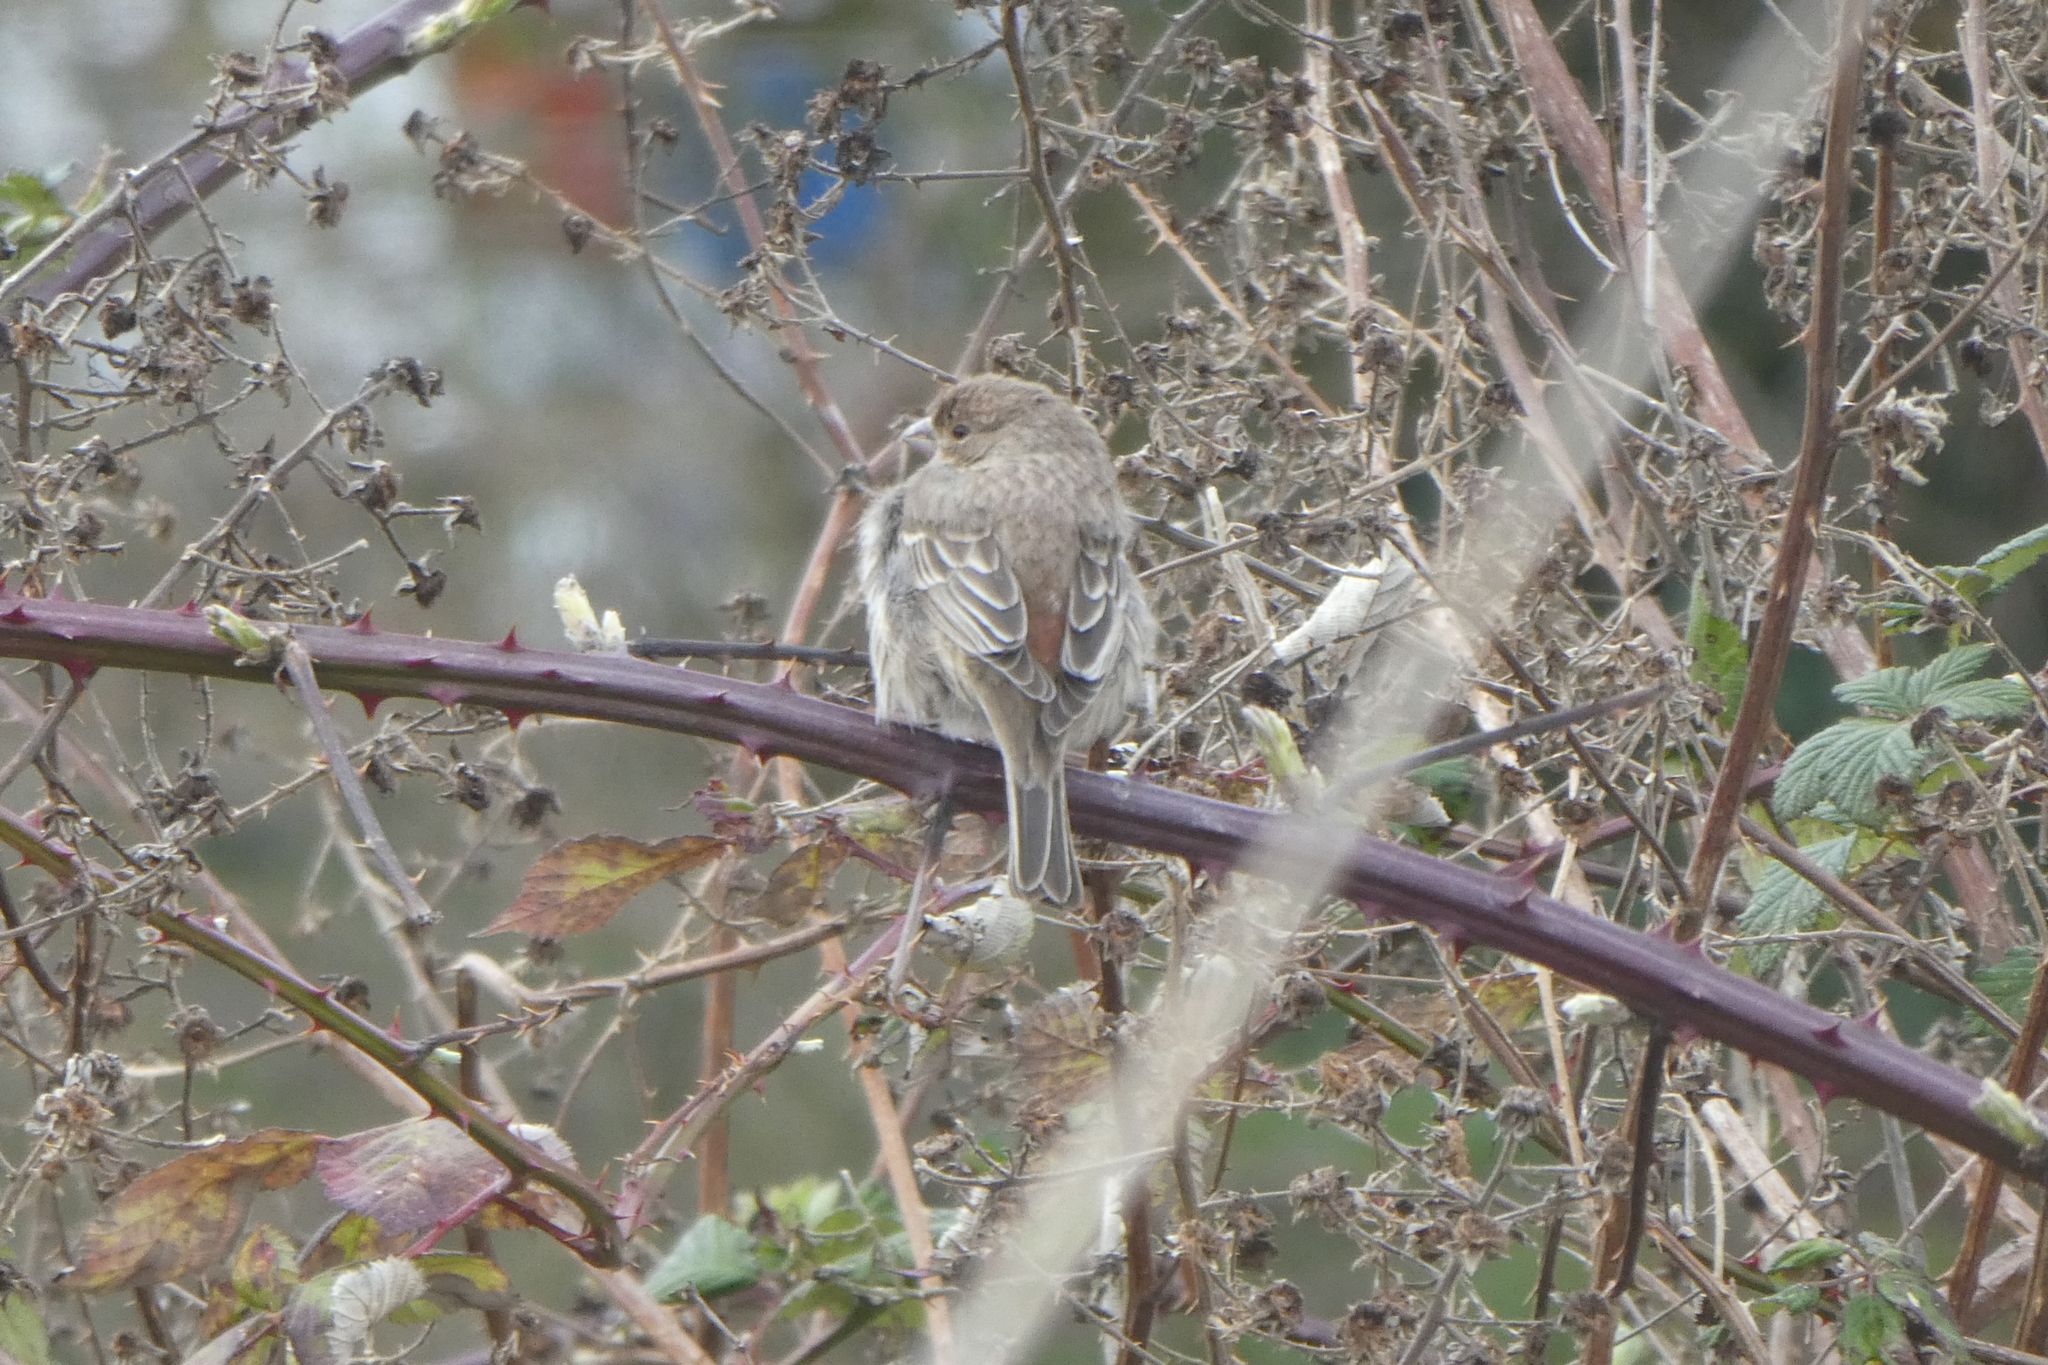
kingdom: Animalia
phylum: Chordata
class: Aves
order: Passeriformes
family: Fringillidae
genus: Haemorhous
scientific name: Haemorhous mexicanus
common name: House finch
